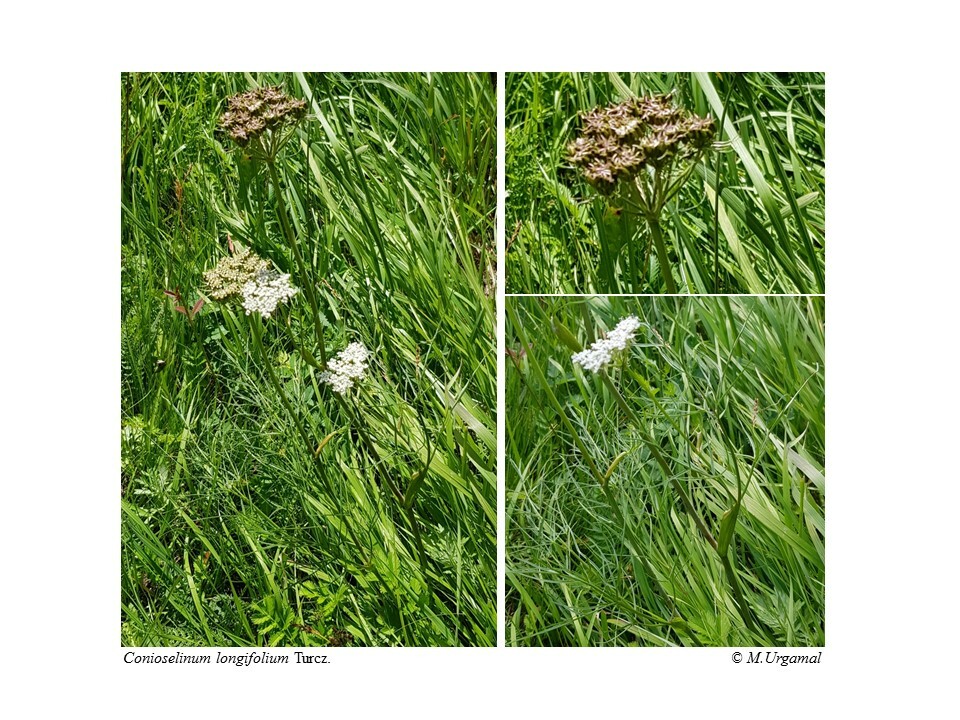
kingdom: Plantae
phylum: Tracheophyta
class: Magnoliopsida
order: Apiales
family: Apiaceae
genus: Conioselinum
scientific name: Conioselinum longifolium
